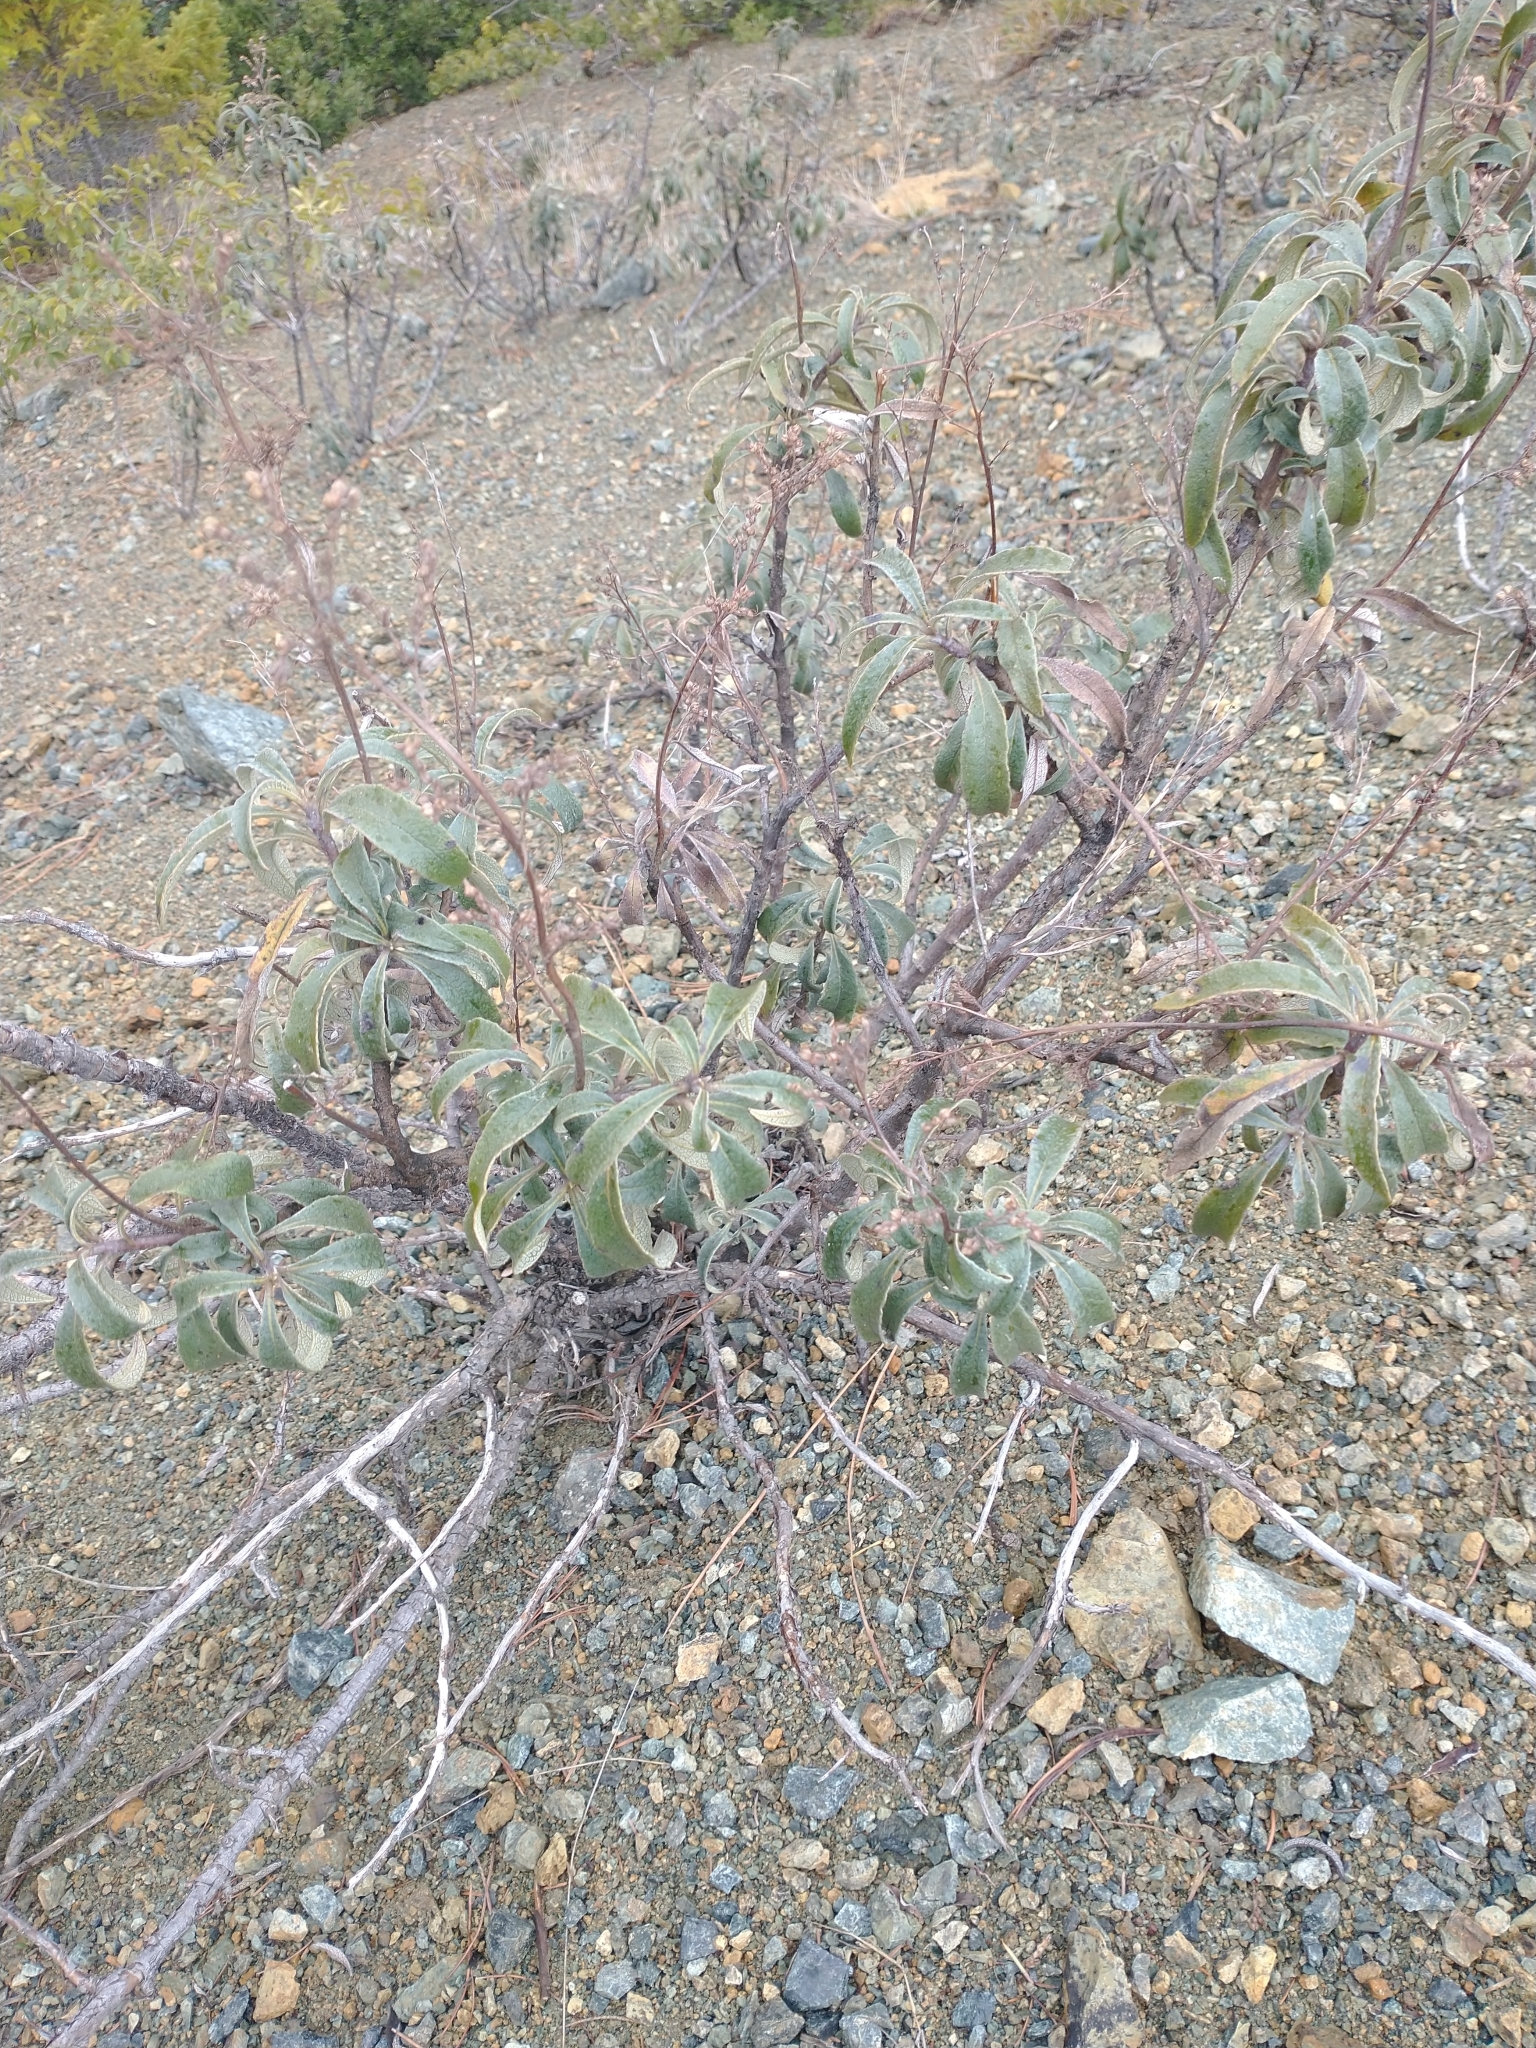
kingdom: Plantae
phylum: Tracheophyta
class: Magnoliopsida
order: Fagales
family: Fagaceae
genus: Chrysolepis
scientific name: Chrysolepis chrysophylla
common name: Giant chinquapin
